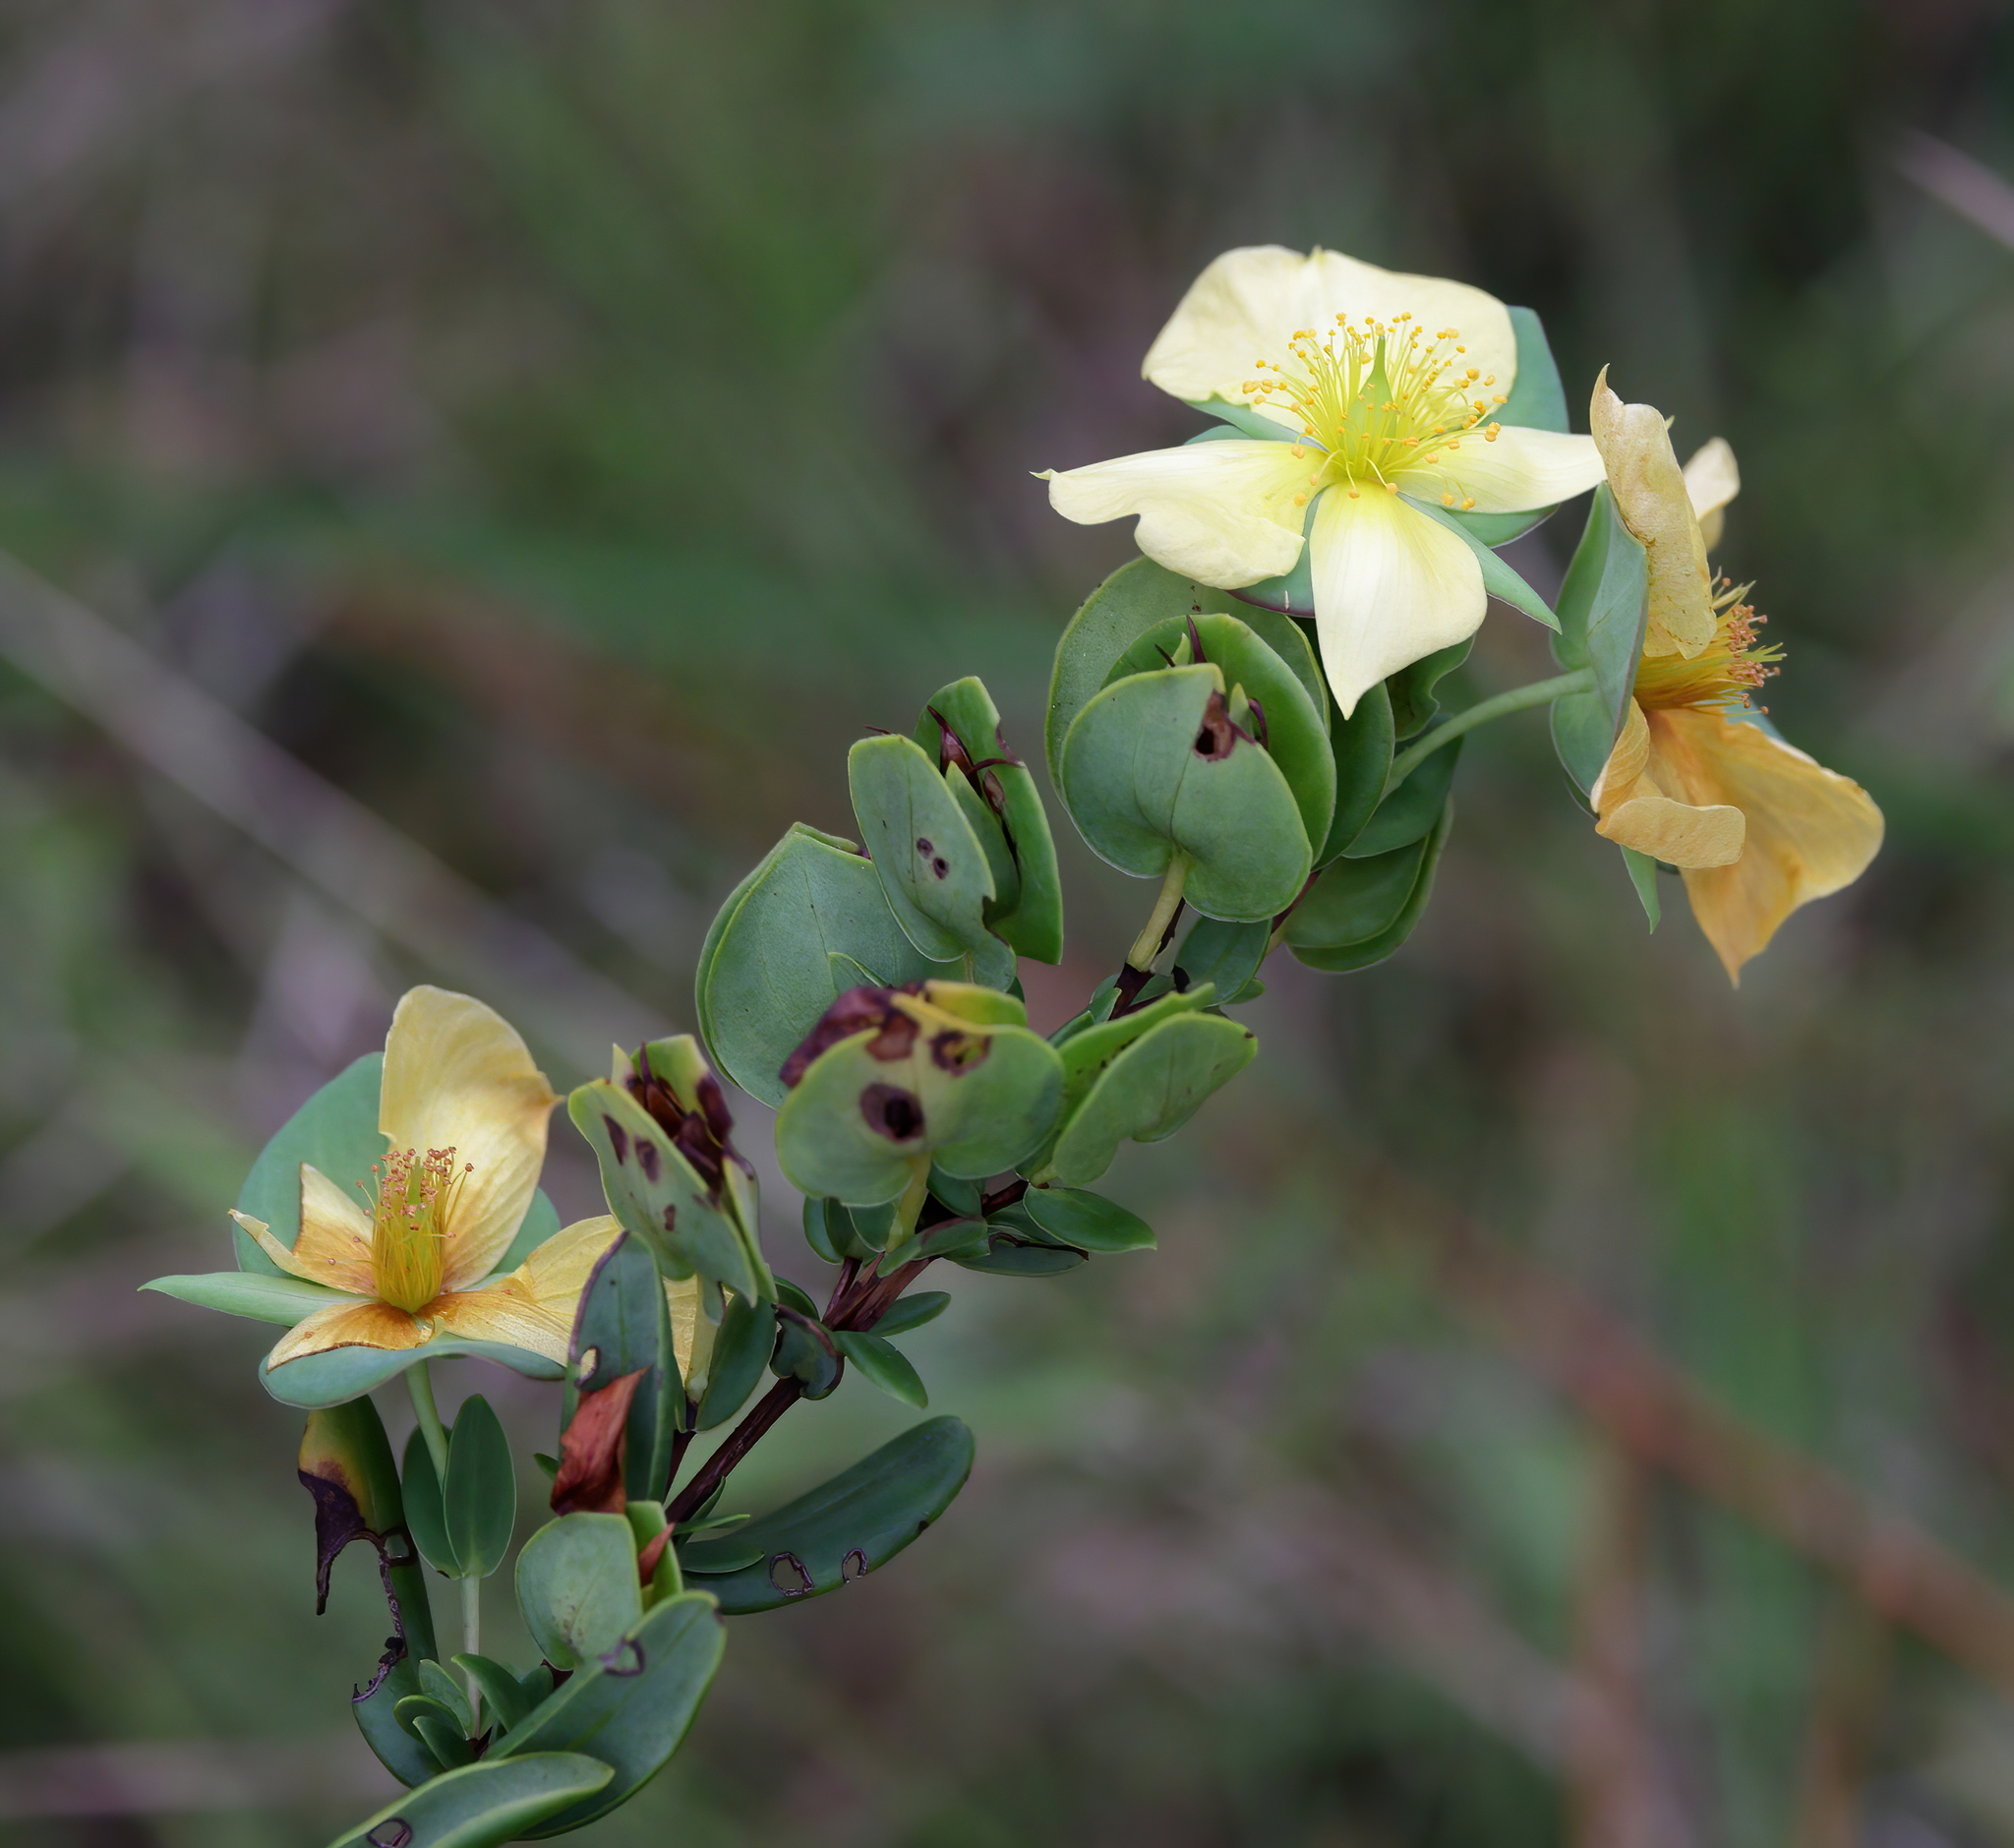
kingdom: Plantae
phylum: Tracheophyta
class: Magnoliopsida
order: Malpighiales
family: Hypericaceae
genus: Hypericum
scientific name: Hypericum crux-andreae
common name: St.-peter's-wort
